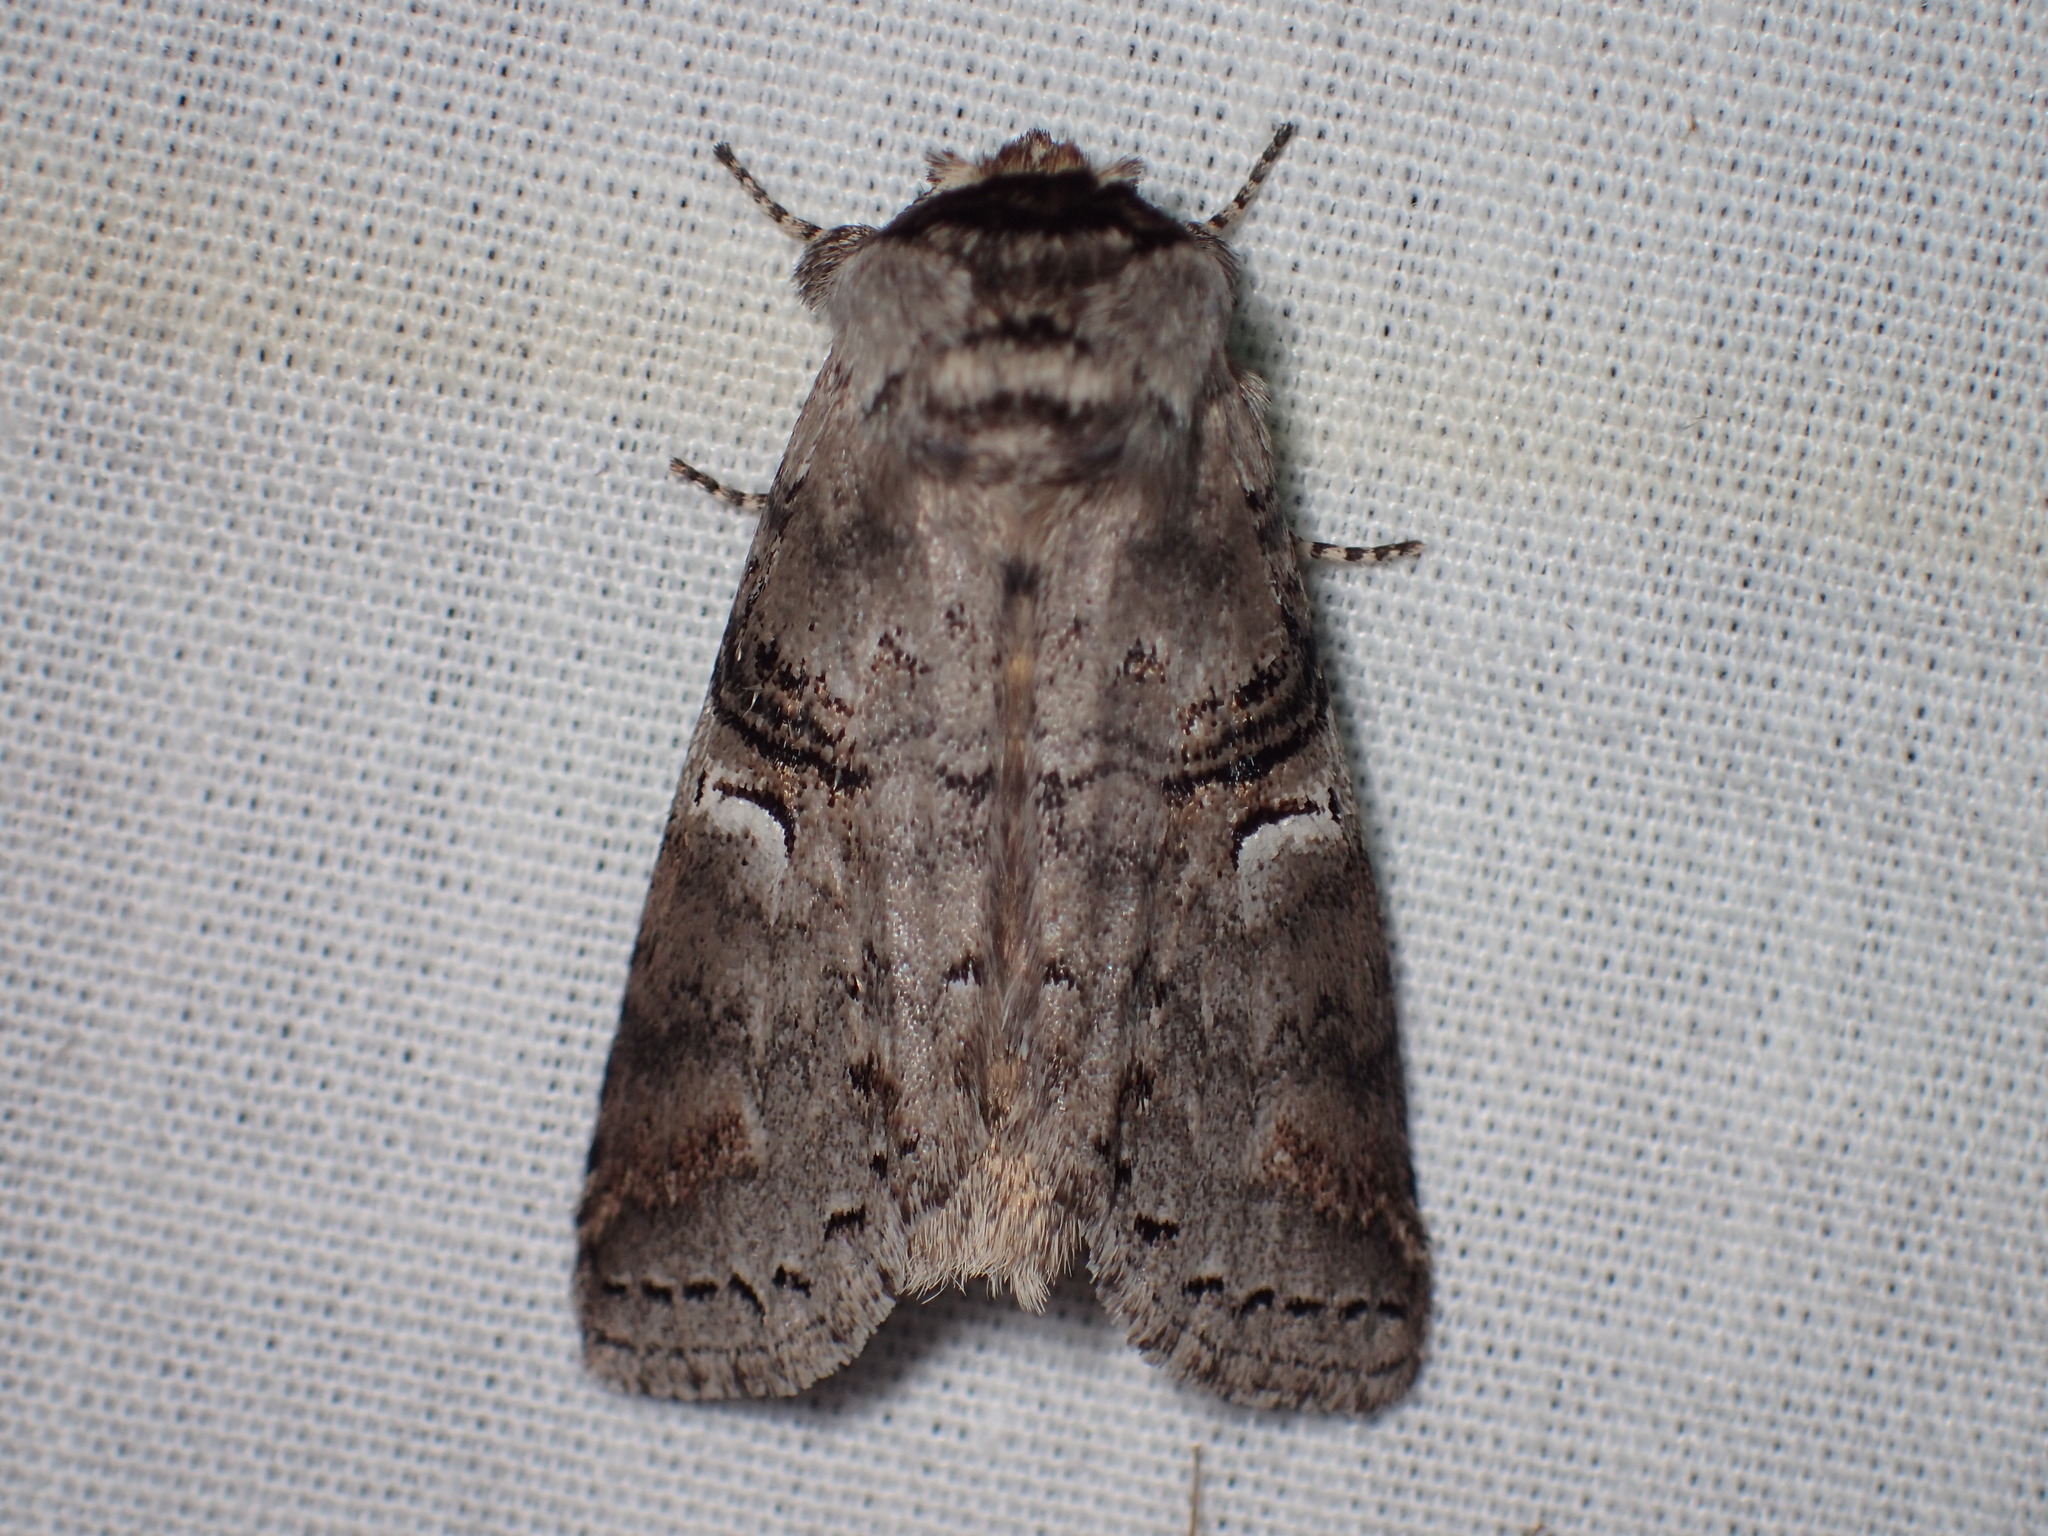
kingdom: Animalia
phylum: Arthropoda
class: Insecta
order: Lepidoptera
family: Notodontidae
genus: Ellida
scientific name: Ellida caniplaga
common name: Linden prominent
